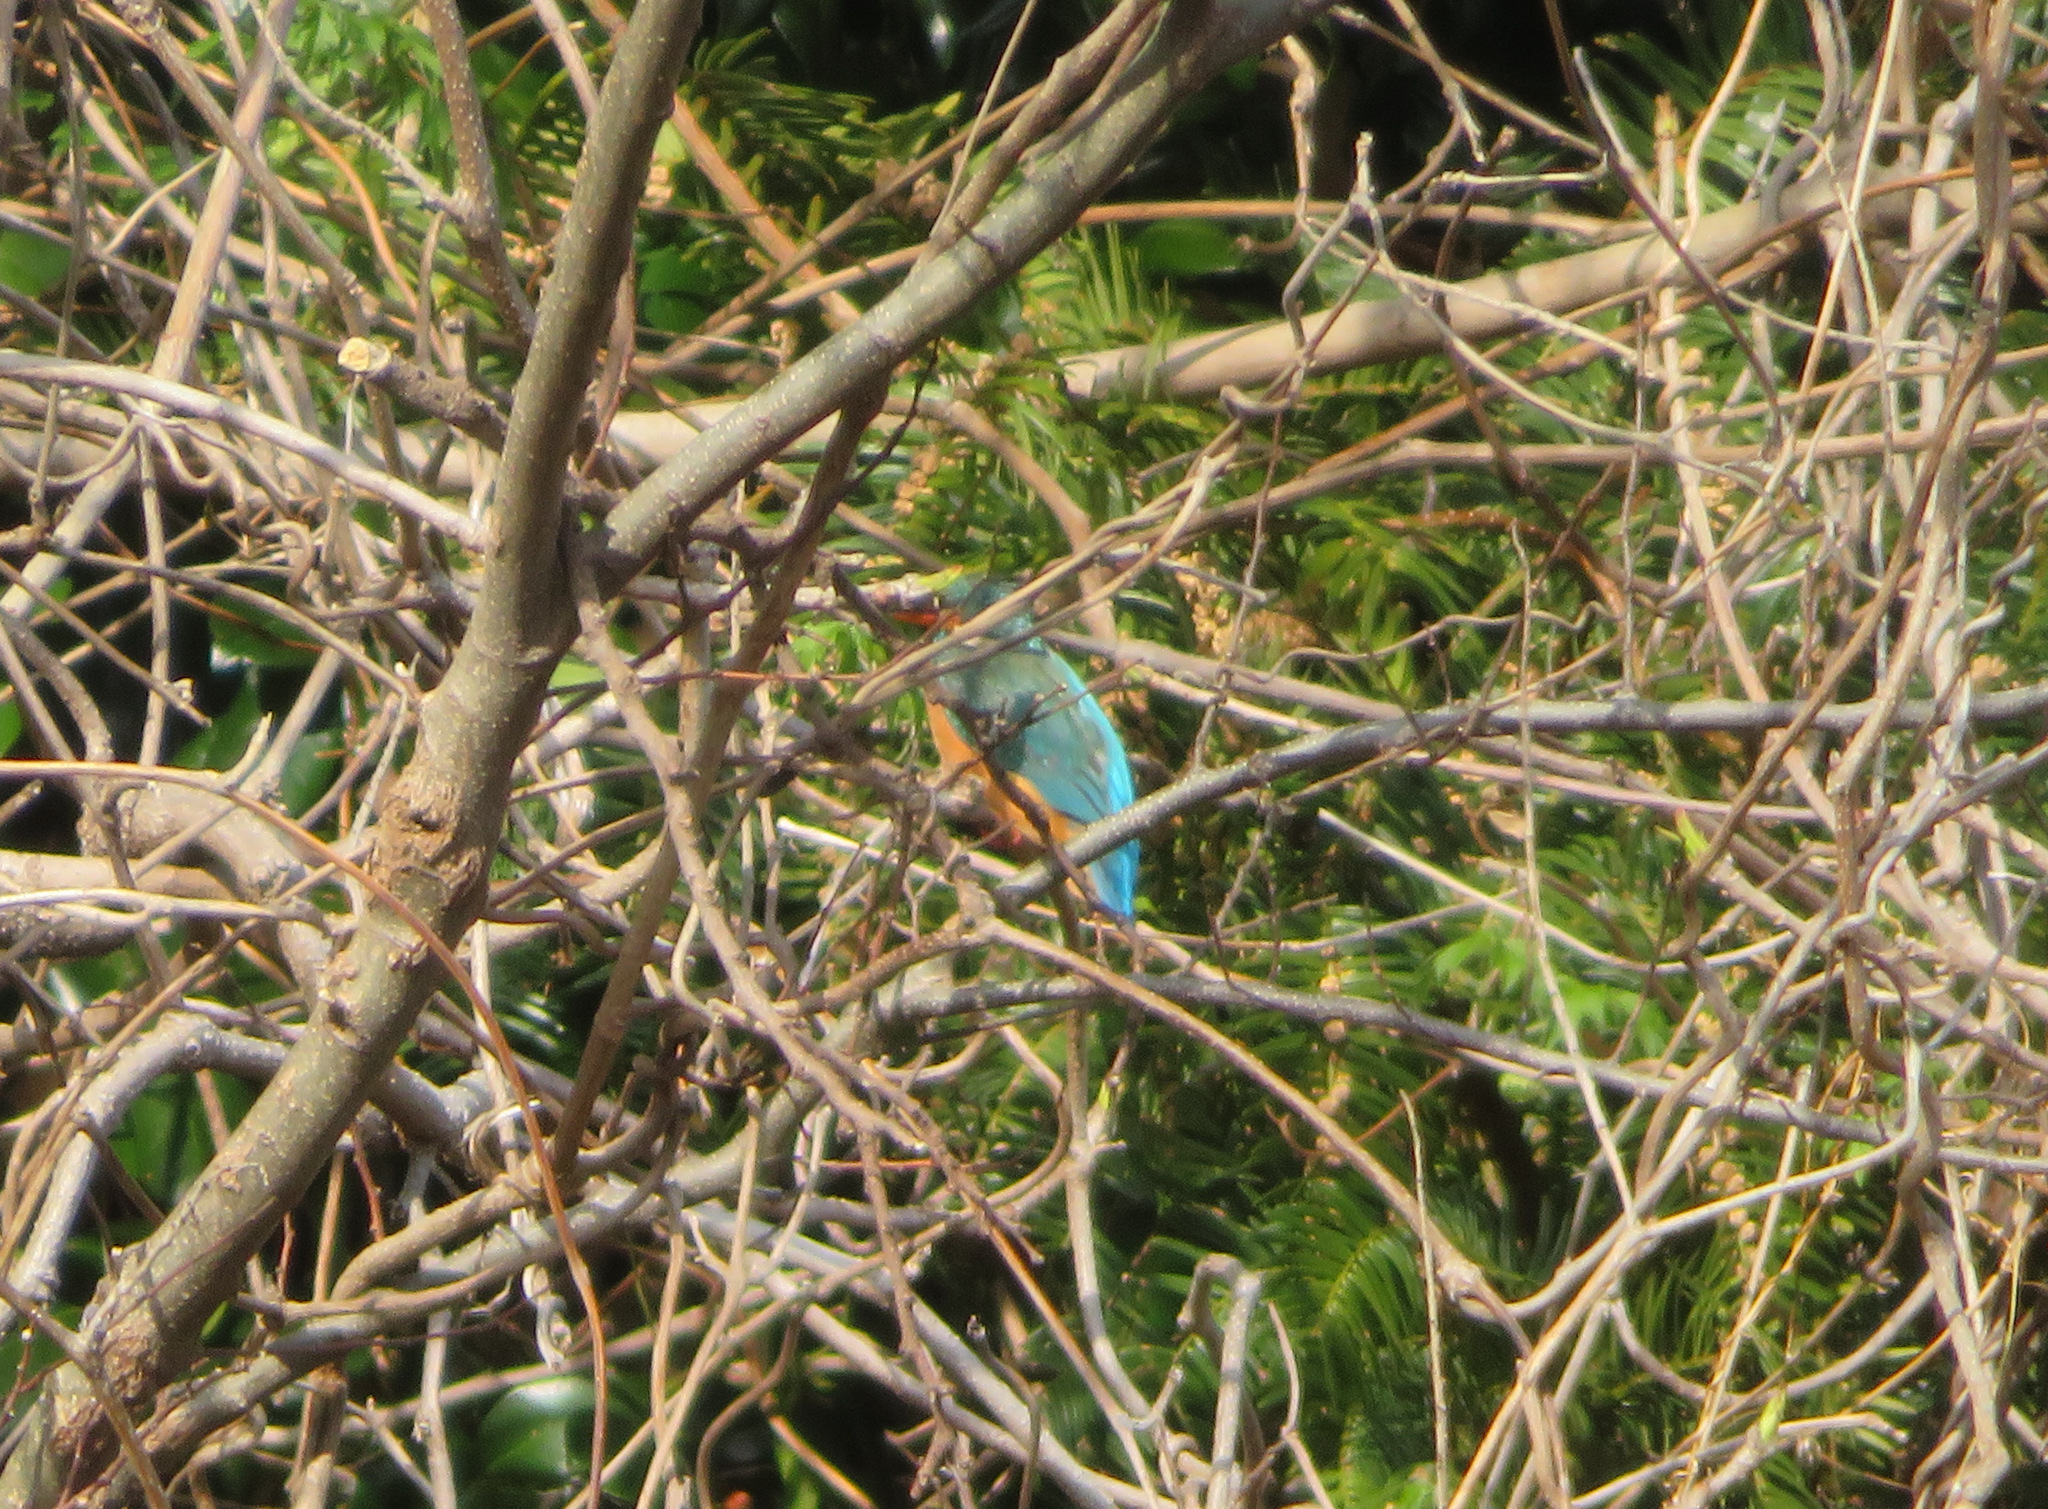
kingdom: Animalia
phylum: Chordata
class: Aves
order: Coraciiformes
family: Alcedinidae
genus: Alcedo
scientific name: Alcedo atthis
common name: Common kingfisher
